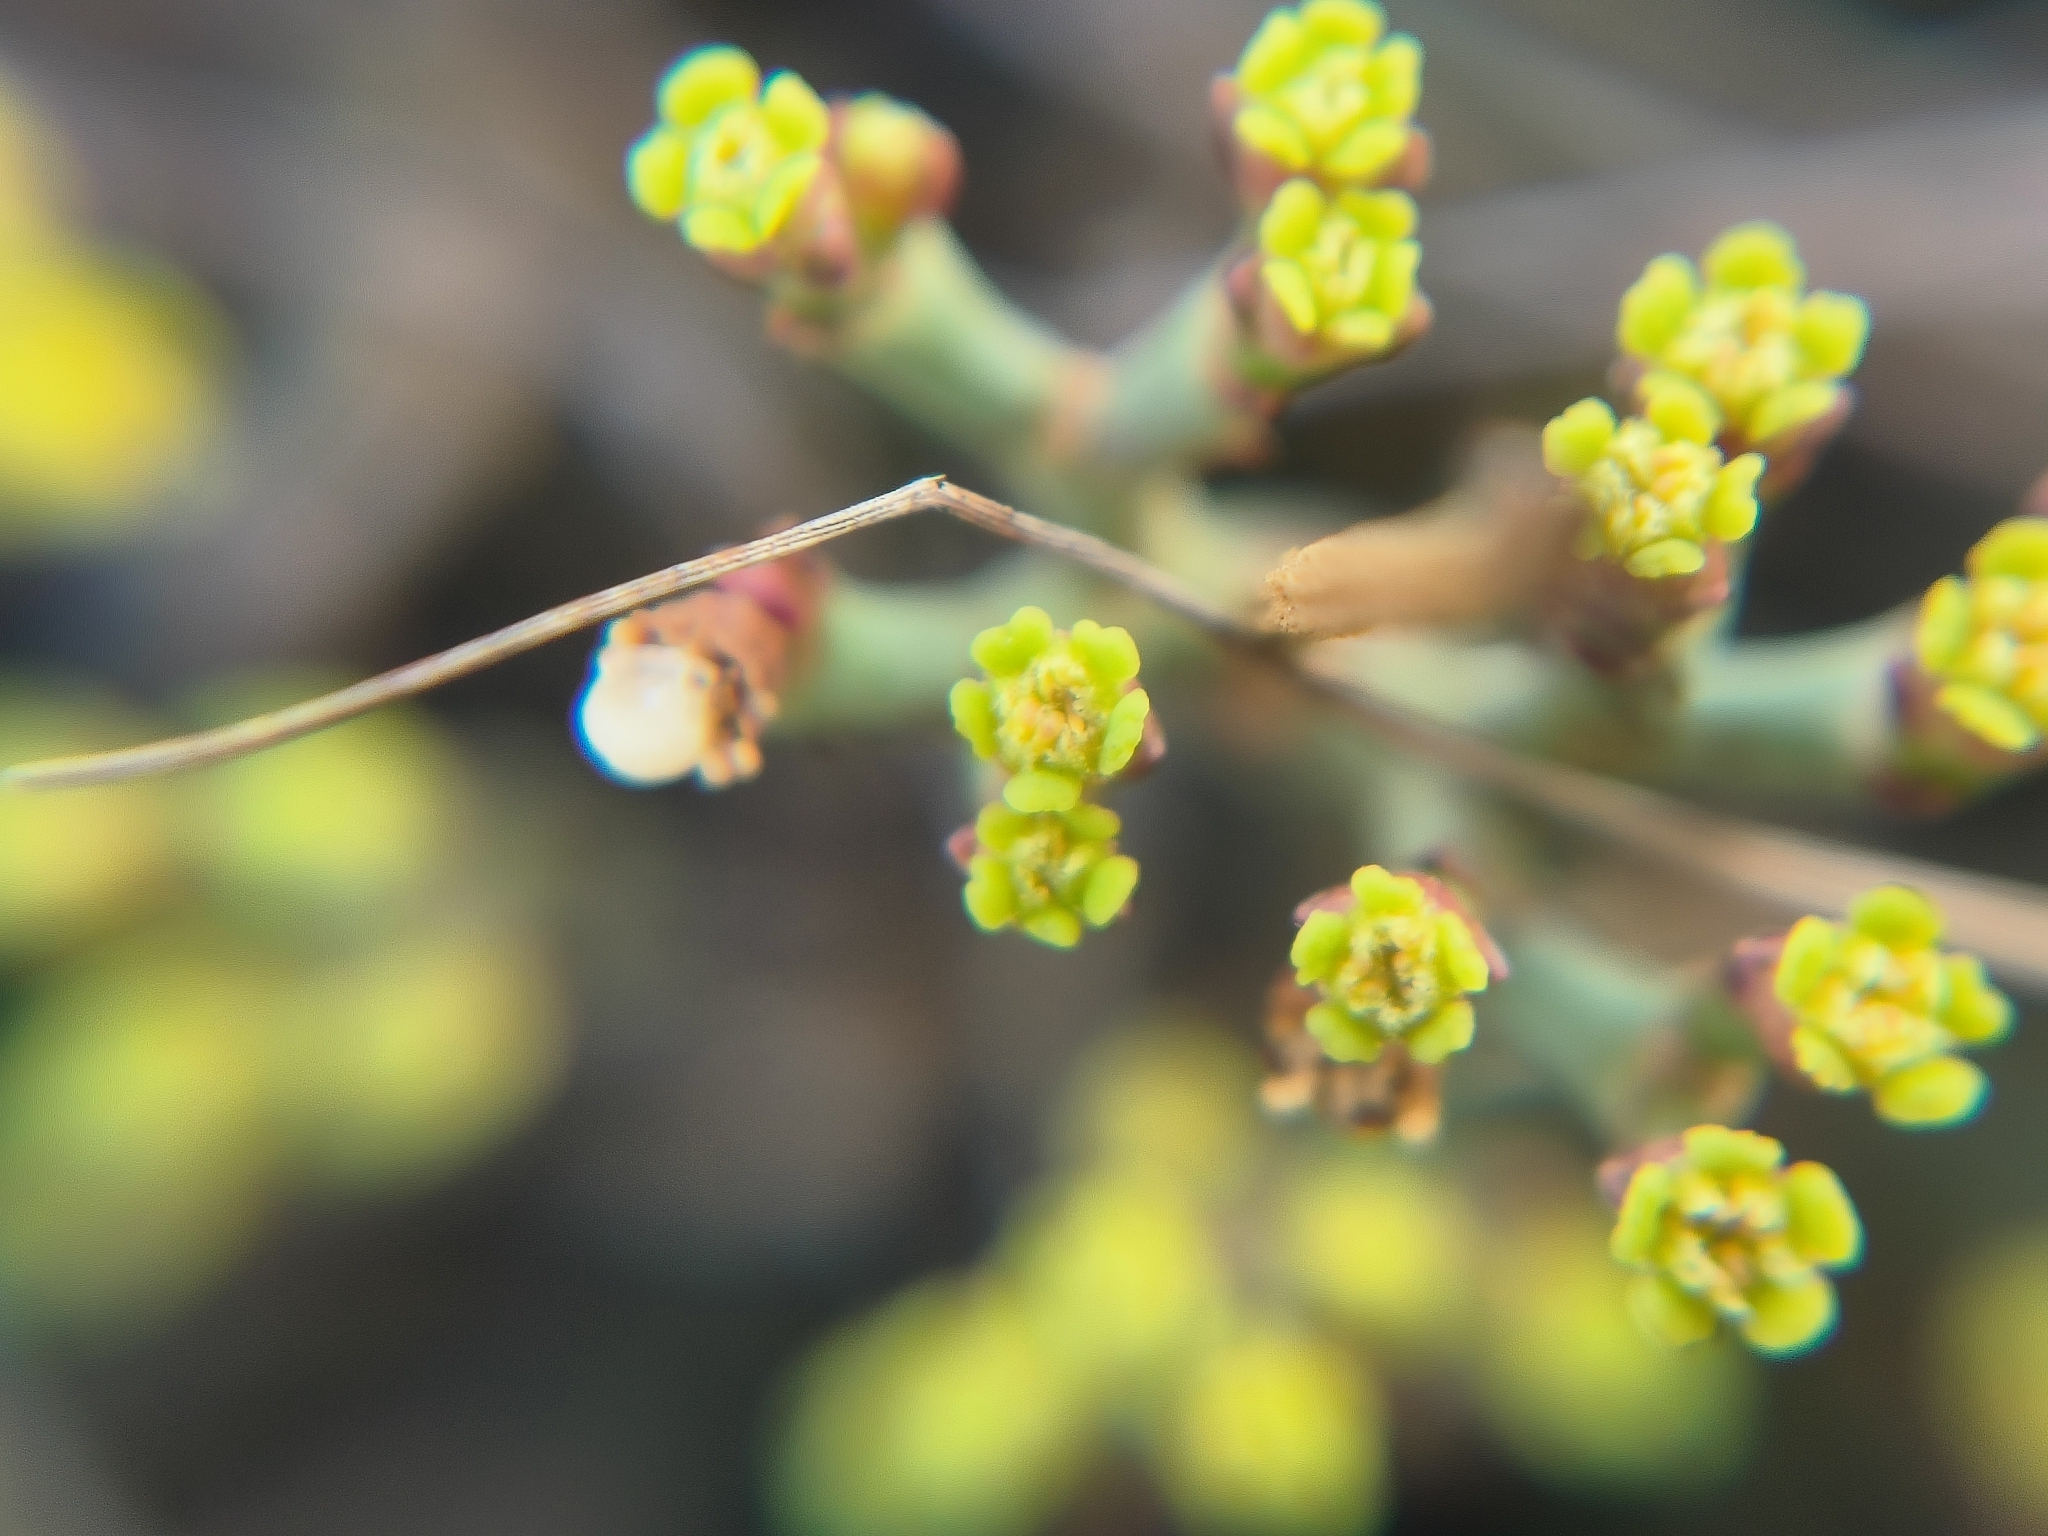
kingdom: Plantae
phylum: Tracheophyta
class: Magnoliopsida
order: Malpighiales
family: Euphorbiaceae
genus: Euphorbia
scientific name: Euphorbia rhombifolia
